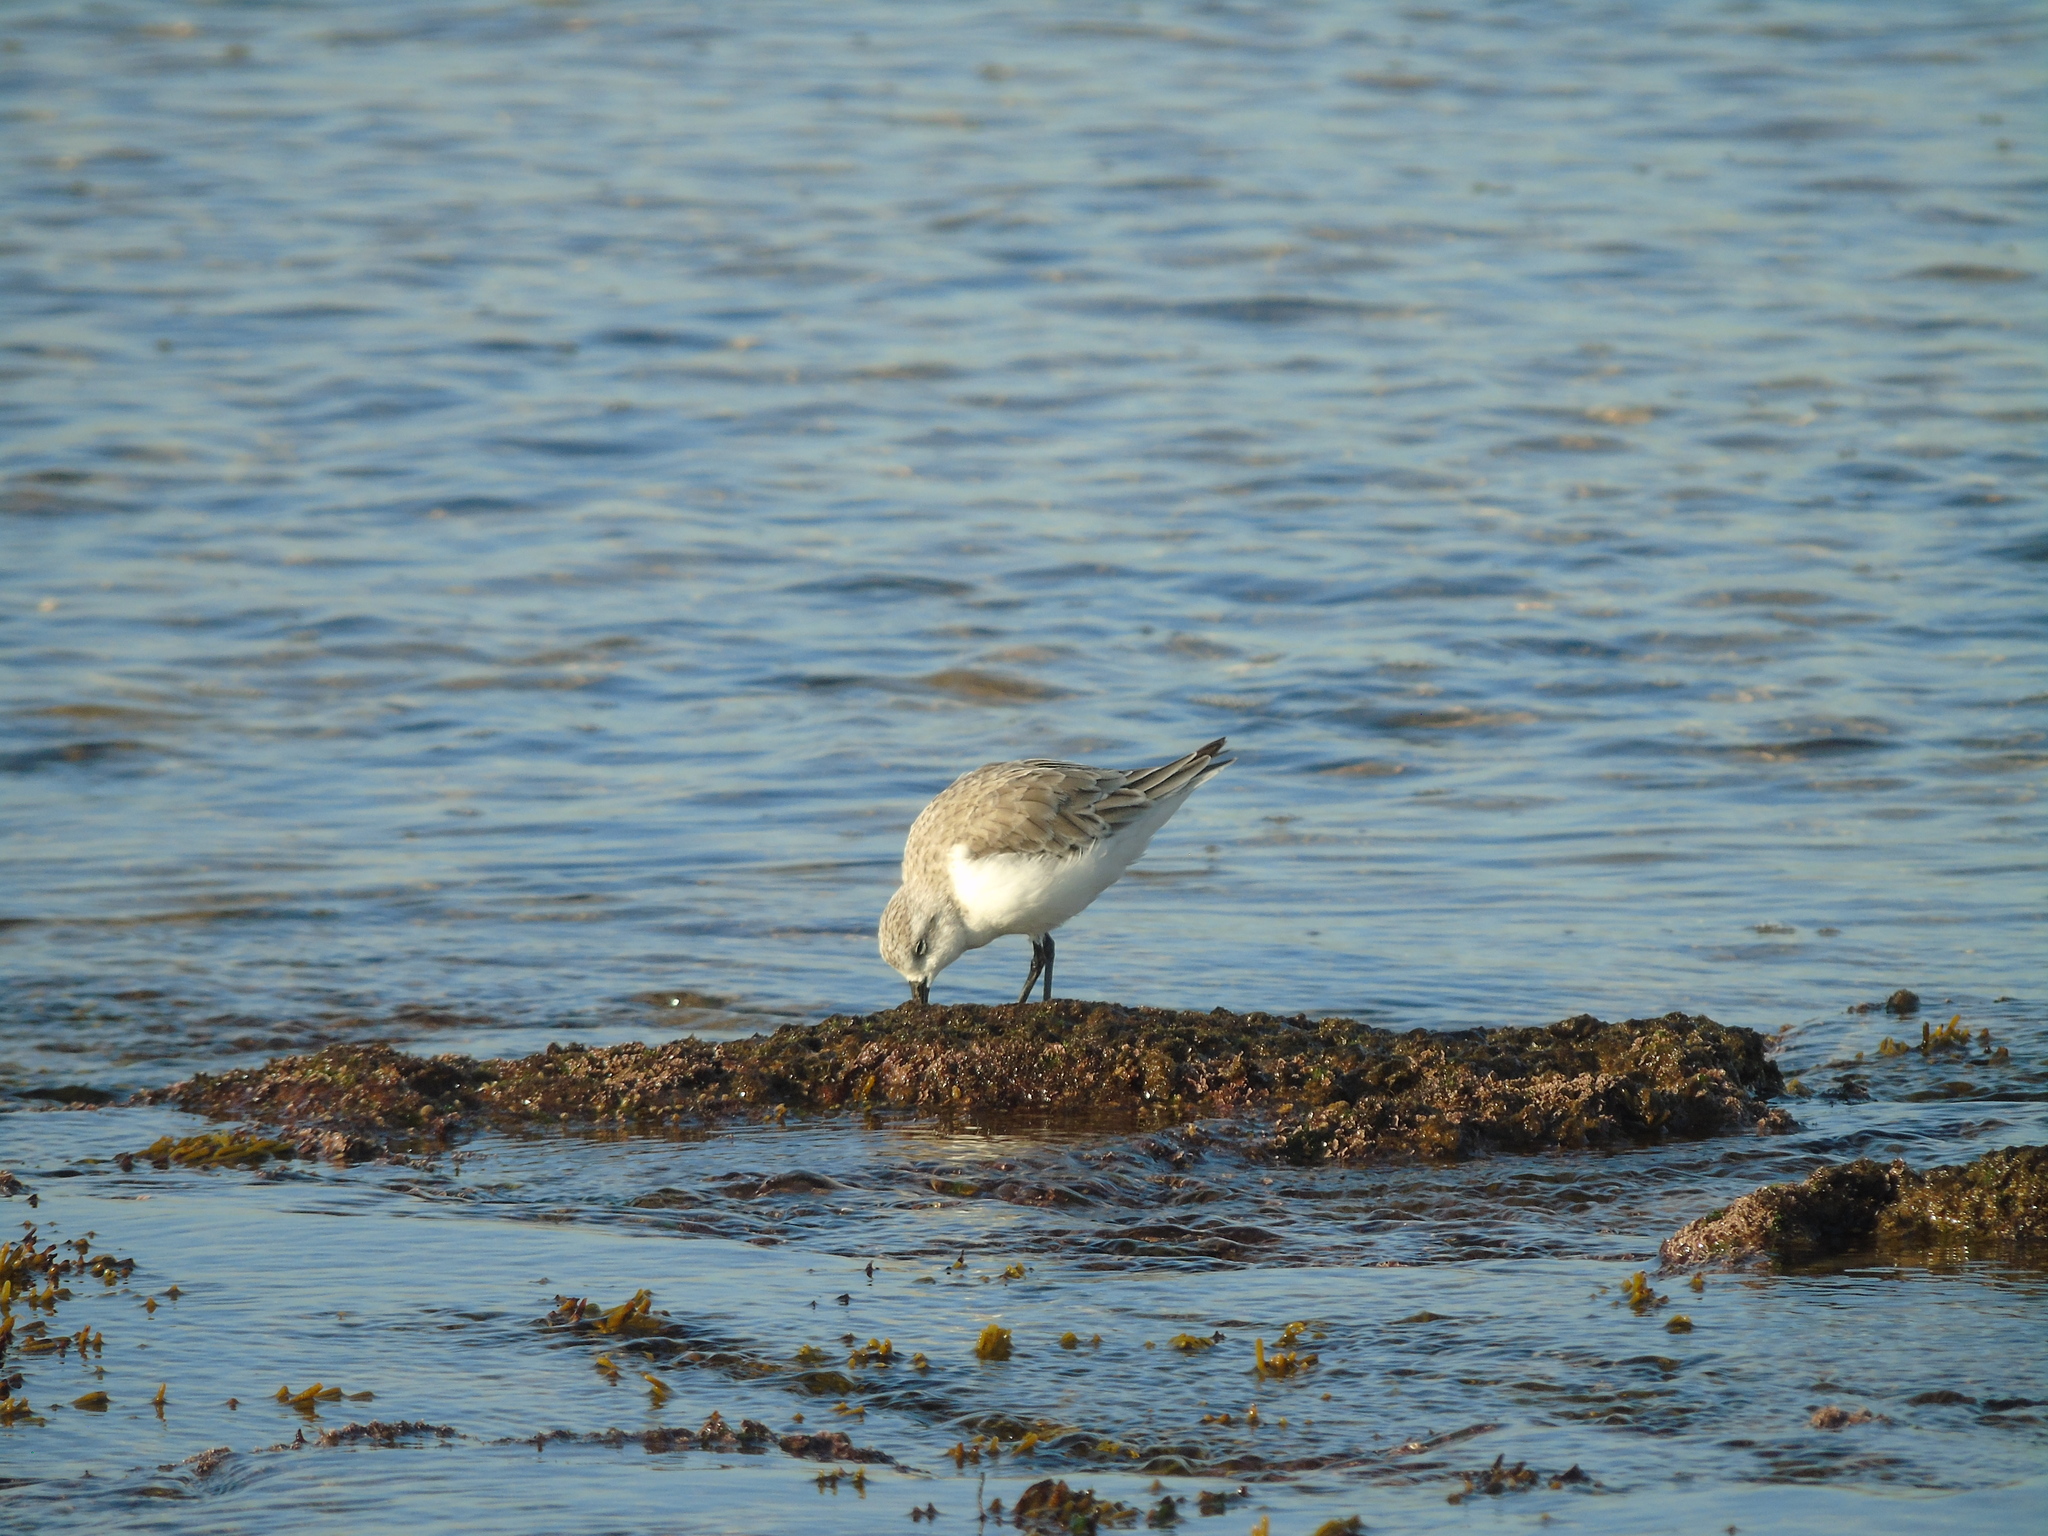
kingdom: Animalia
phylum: Chordata
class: Aves
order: Charadriiformes
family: Scolopacidae
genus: Calidris
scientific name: Calidris alba
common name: Sanderling
